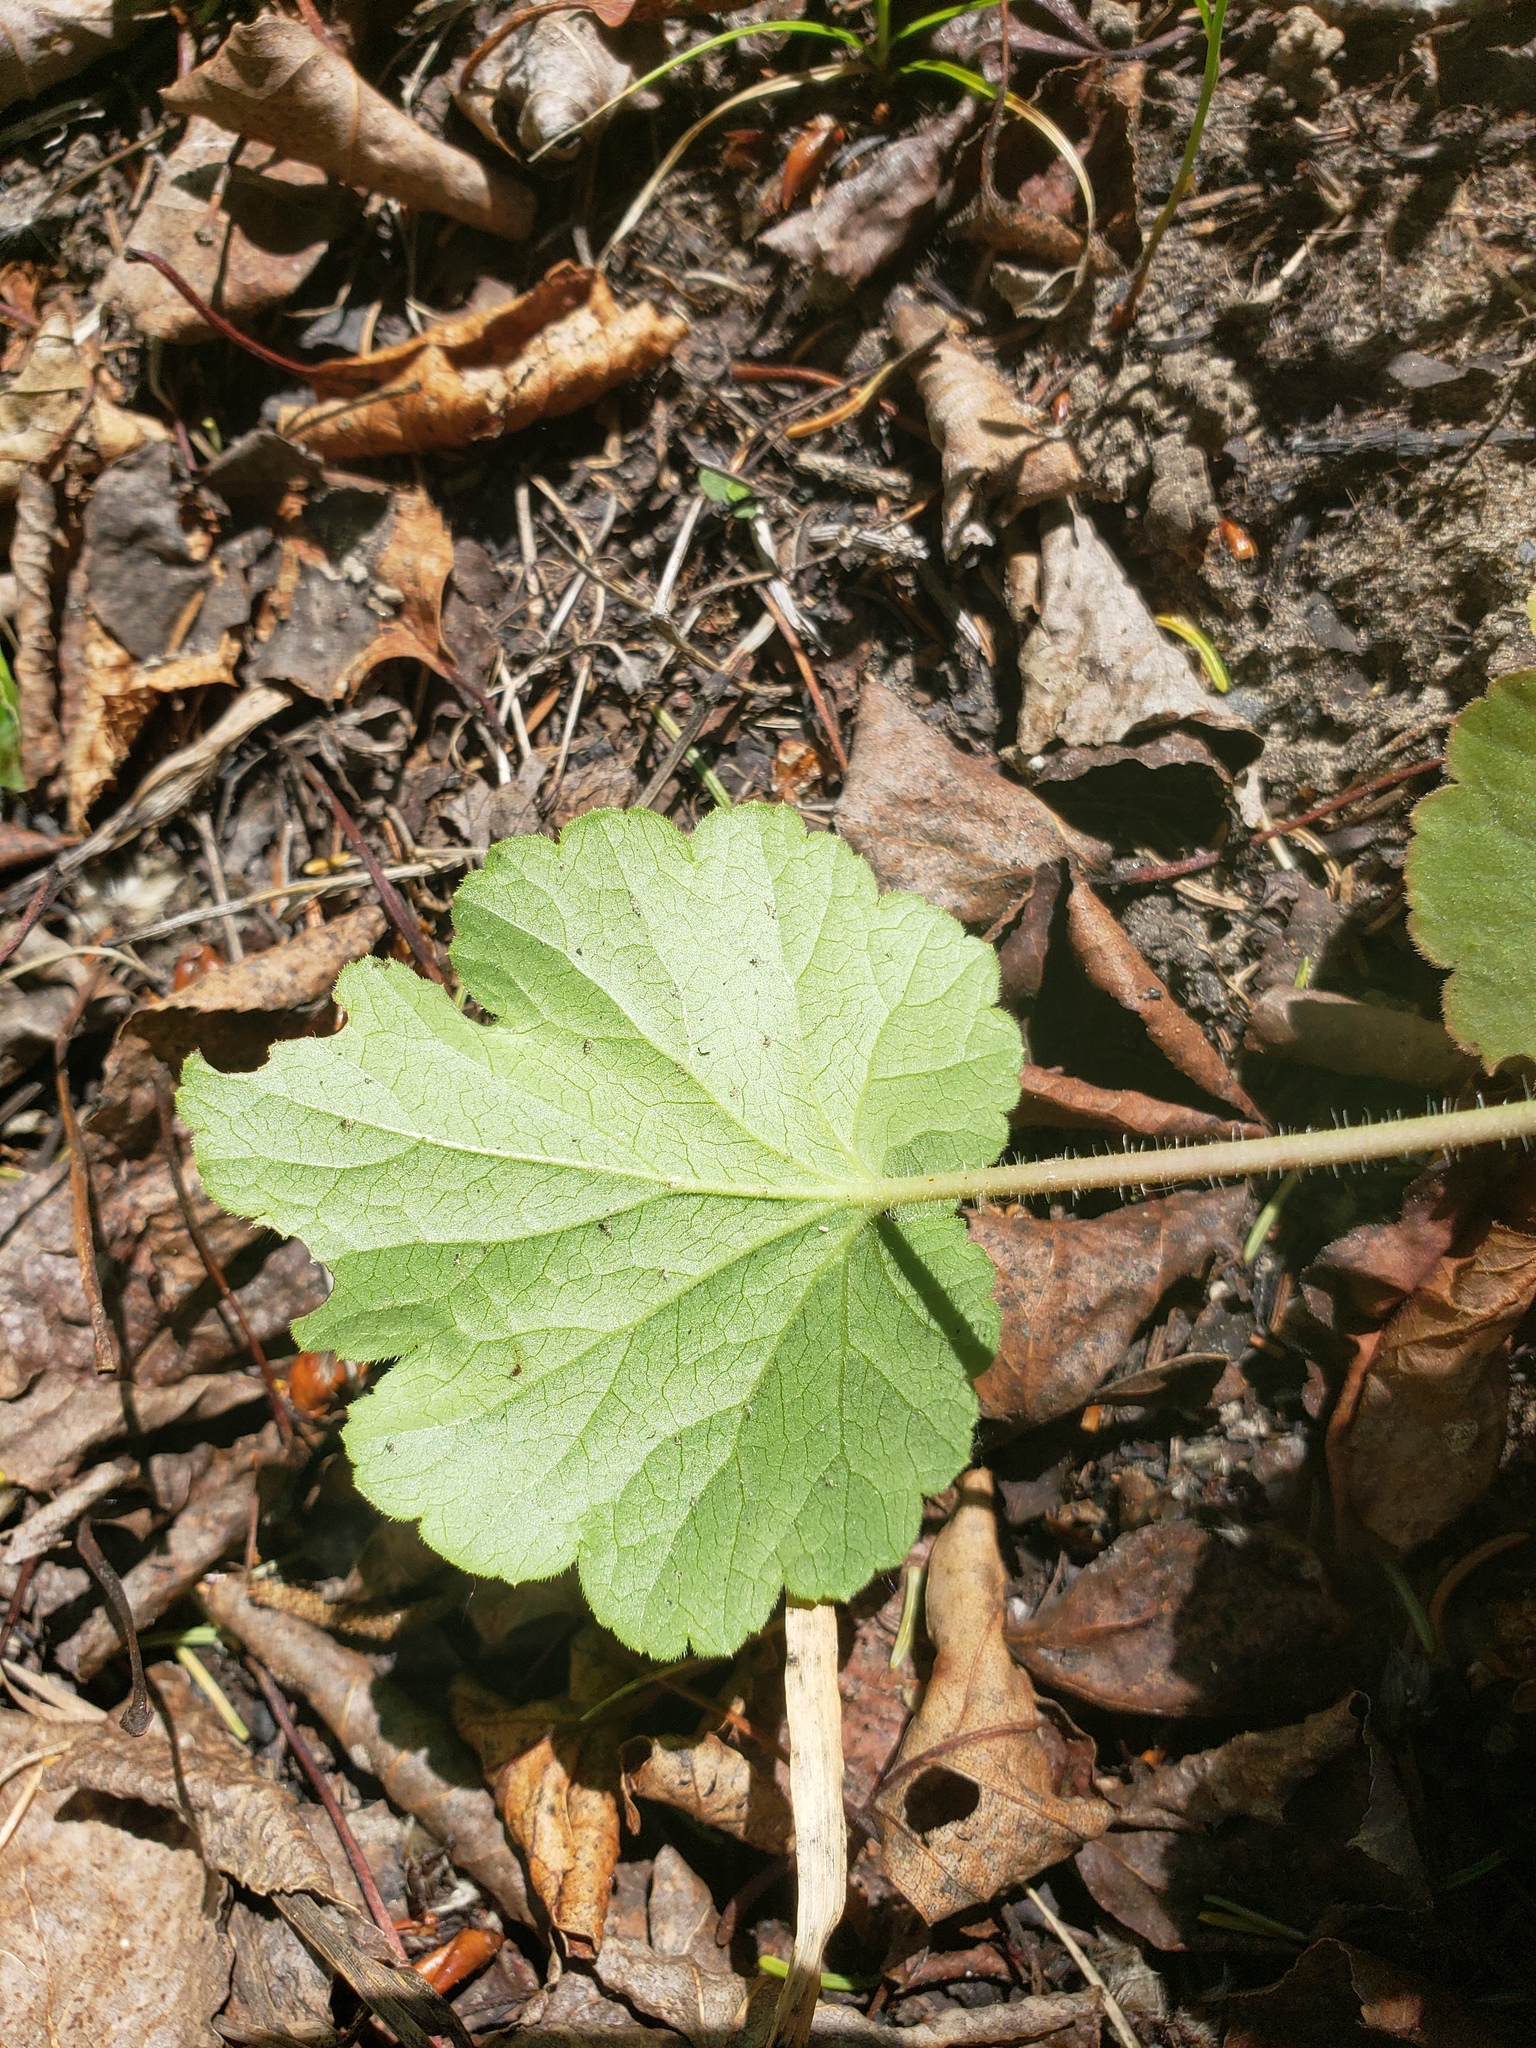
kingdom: Plantae
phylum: Tracheophyta
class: Magnoliopsida
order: Saxifragales
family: Saxifragaceae
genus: Heuchera
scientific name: Heuchera richardsonii
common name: Richardson's alumroot
